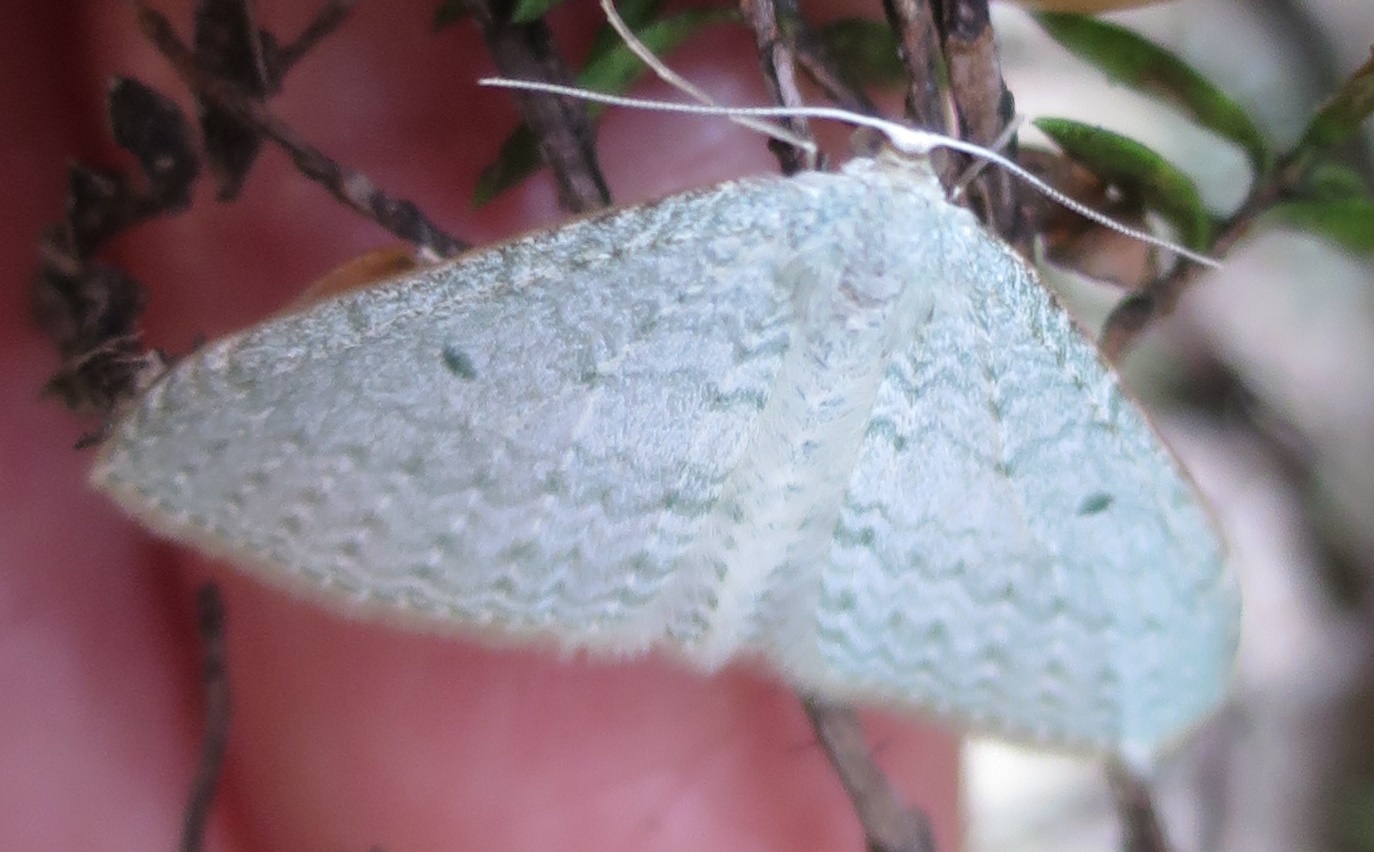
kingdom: Animalia
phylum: Arthropoda
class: Insecta
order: Lepidoptera
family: Geometridae
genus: Poecilasthena
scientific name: Poecilasthena pulchraria
